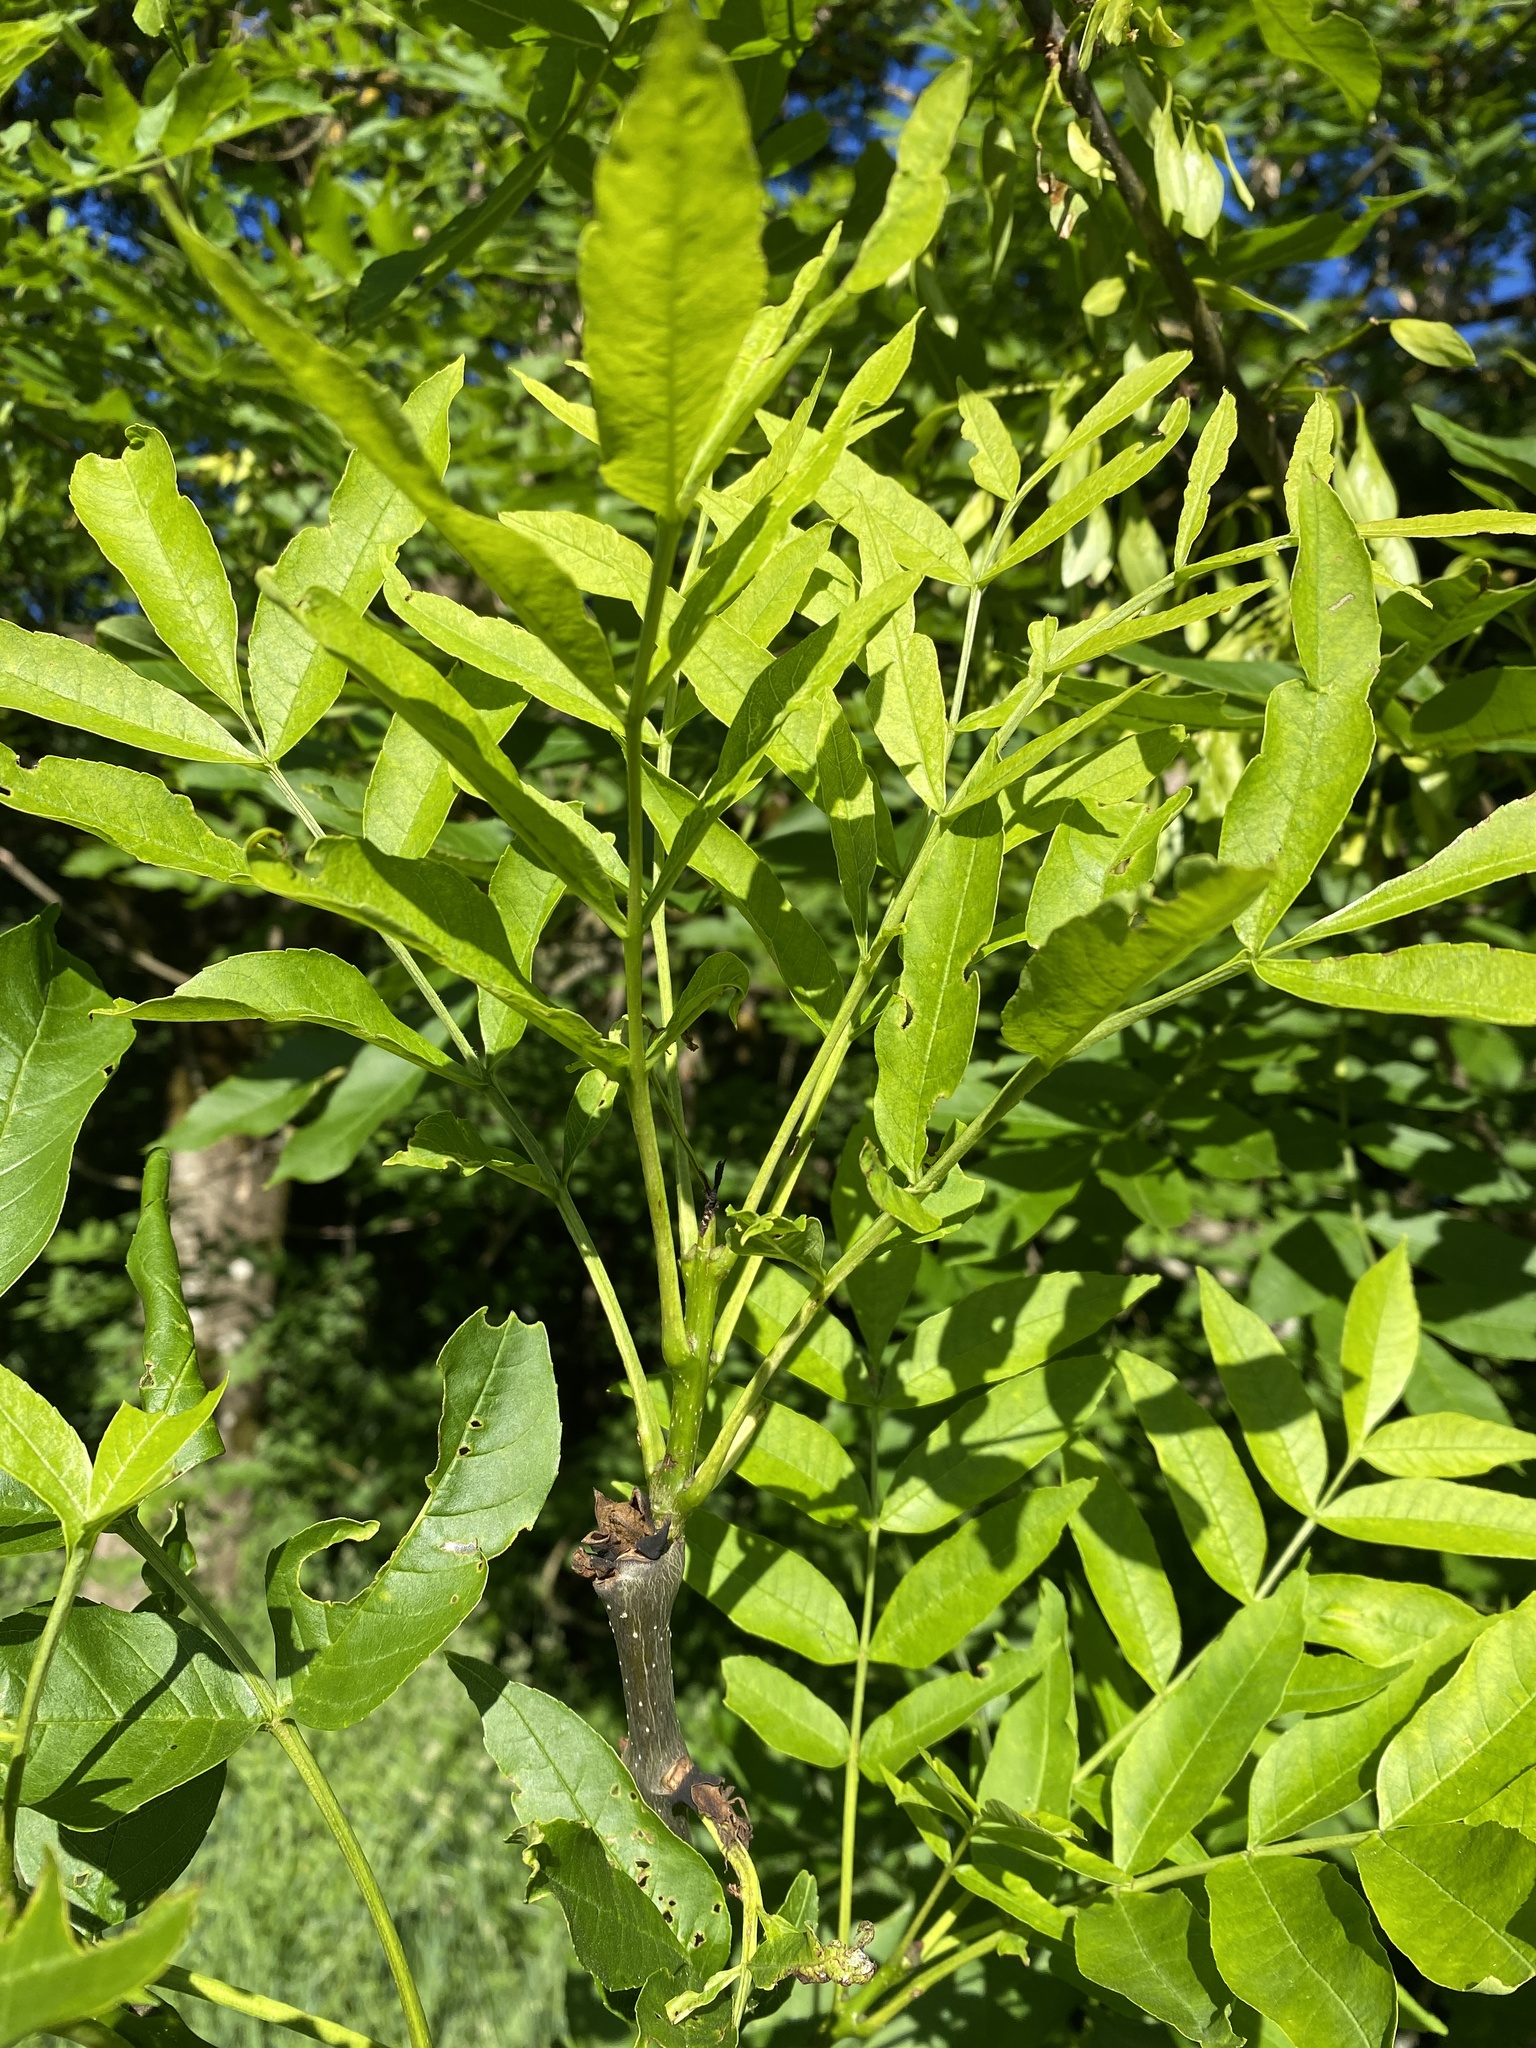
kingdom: Plantae
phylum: Tracheophyta
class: Magnoliopsida
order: Lamiales
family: Oleaceae
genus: Fraxinus
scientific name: Fraxinus excelsior
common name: European ash
